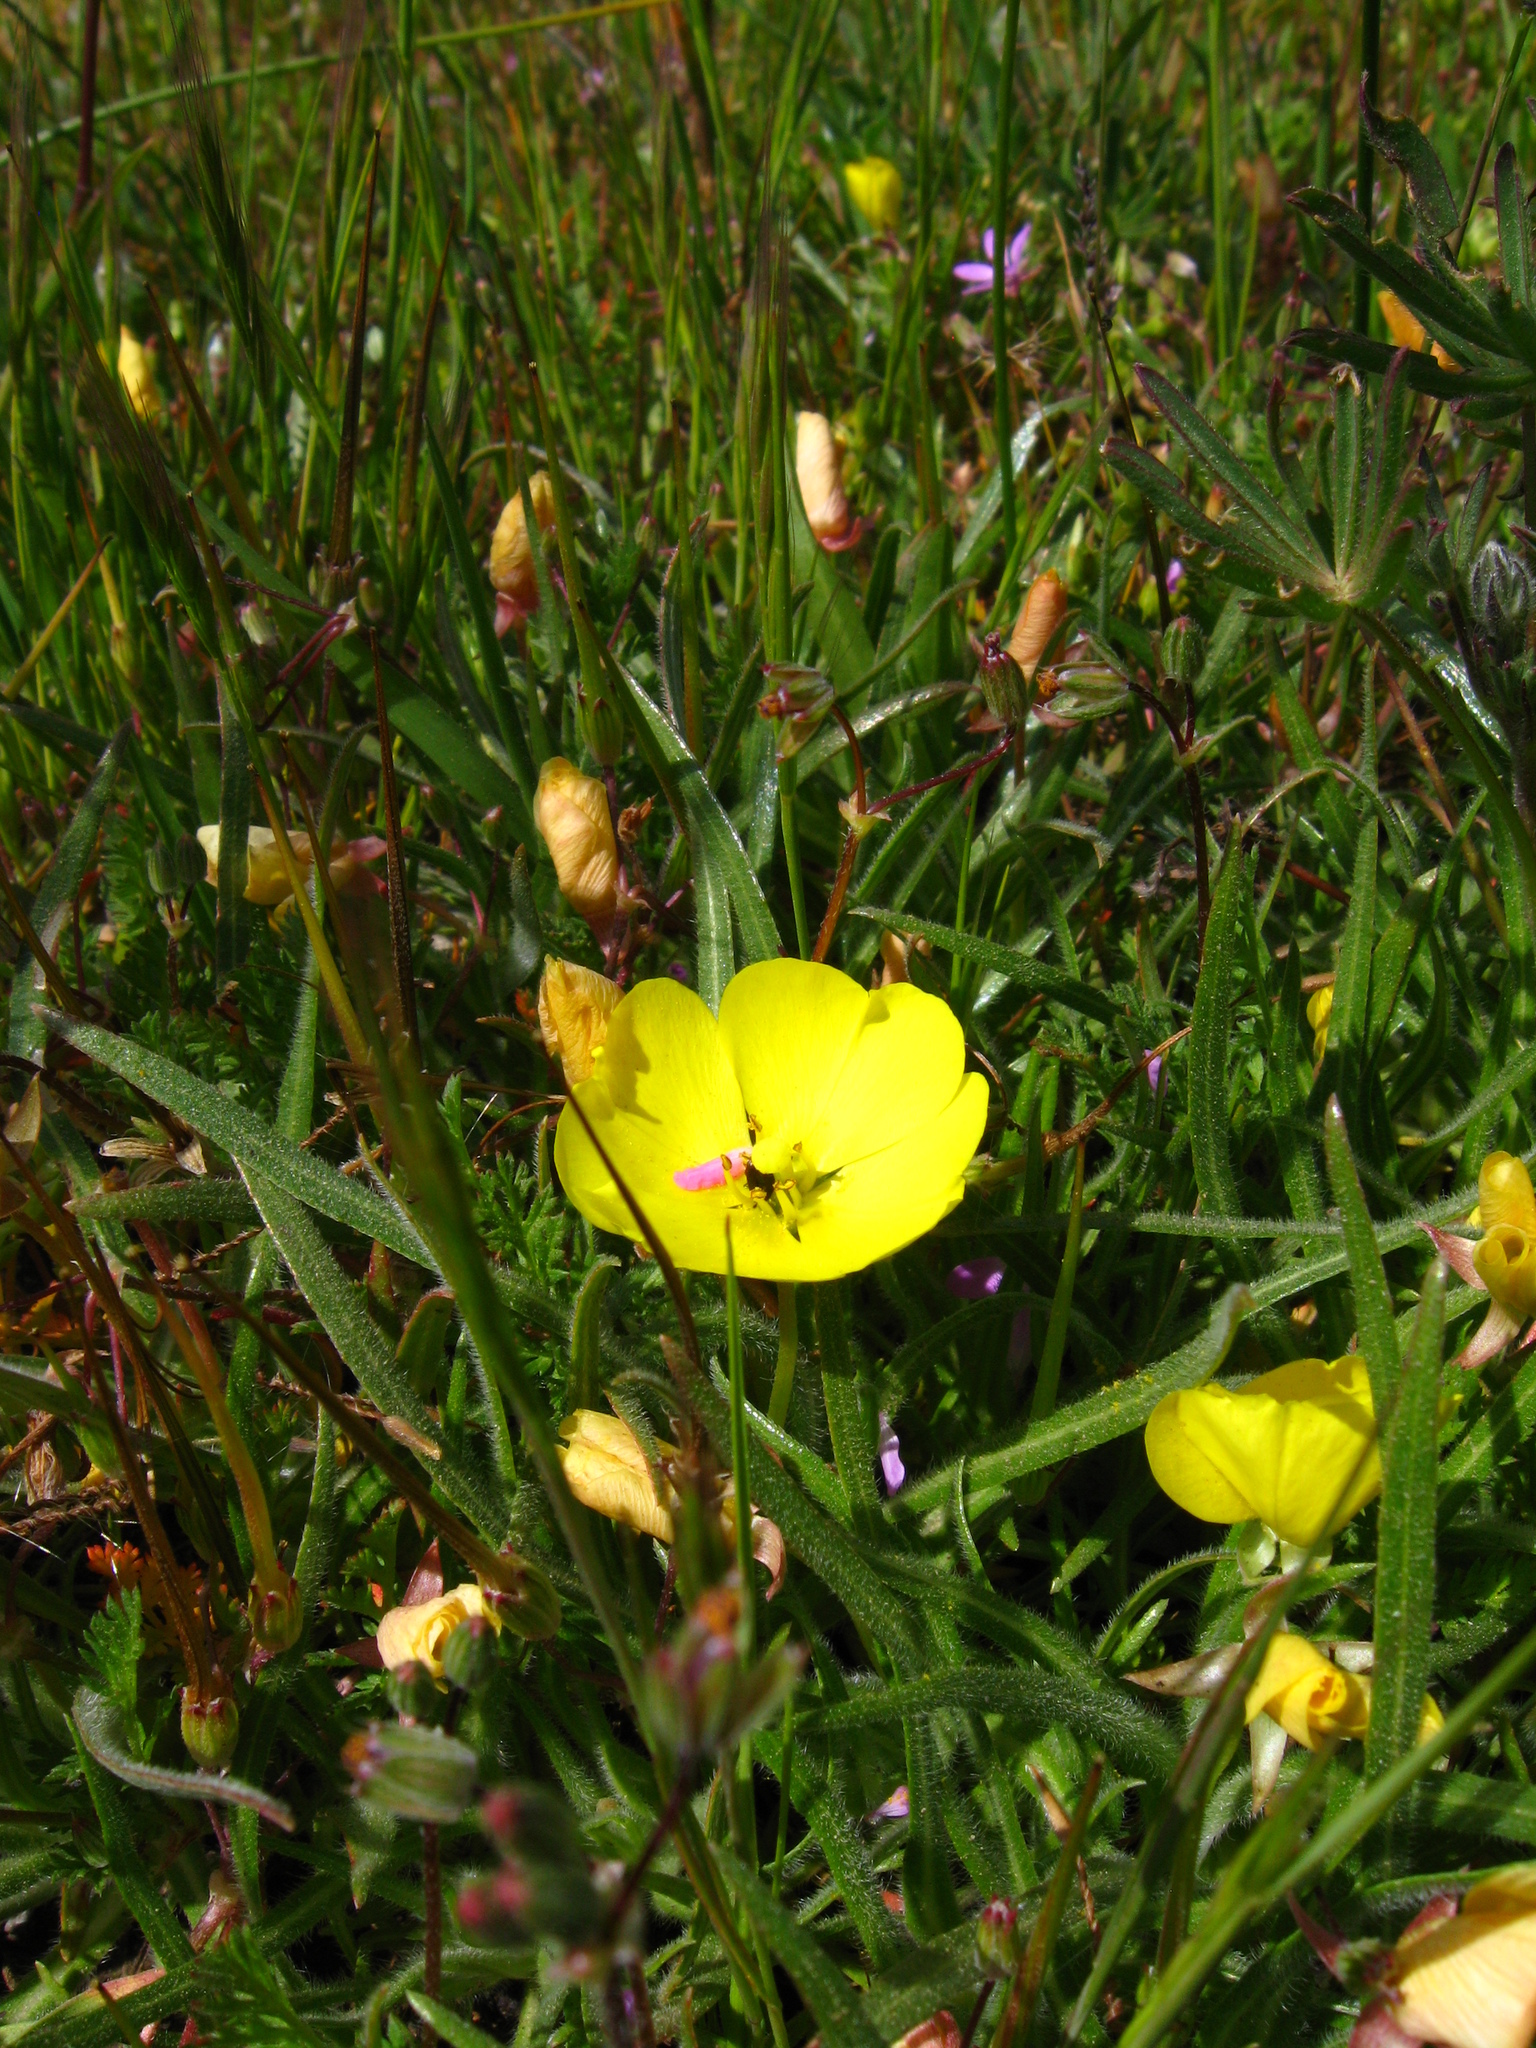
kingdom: Plantae
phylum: Tracheophyta
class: Magnoliopsida
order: Myrtales
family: Onagraceae
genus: Tetrapteron
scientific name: Tetrapteron graciliflorum
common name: Hill suncup
